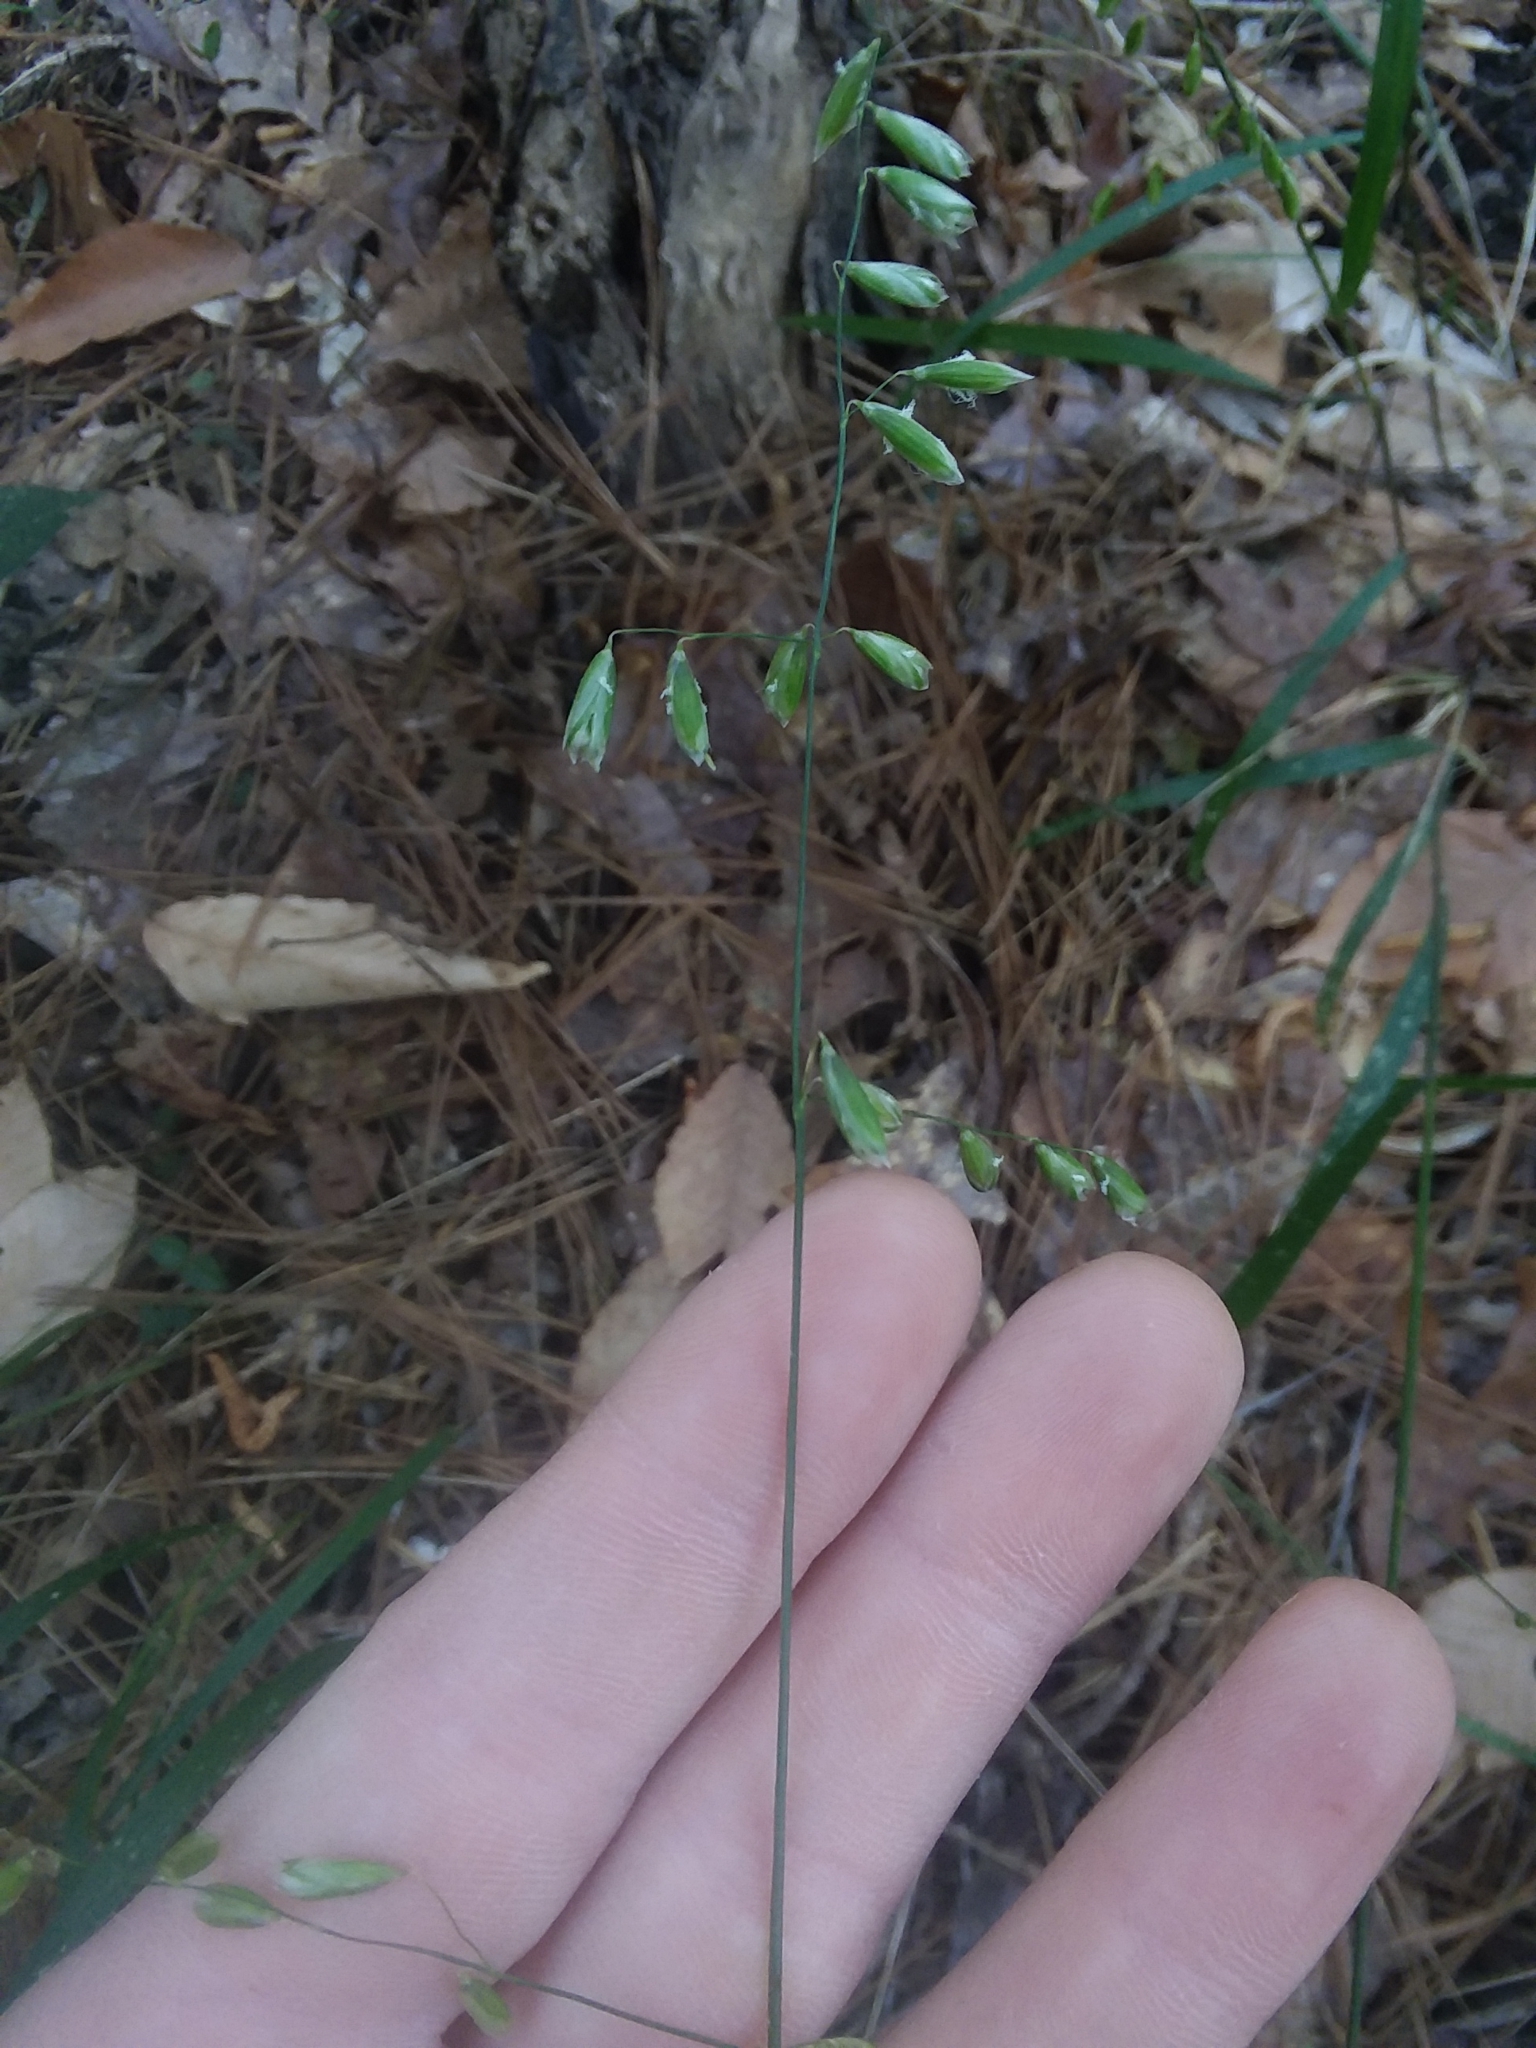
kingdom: Plantae
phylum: Tracheophyta
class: Liliopsida
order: Poales
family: Poaceae
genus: Melica
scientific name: Melica mutica
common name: Two-flower melic
